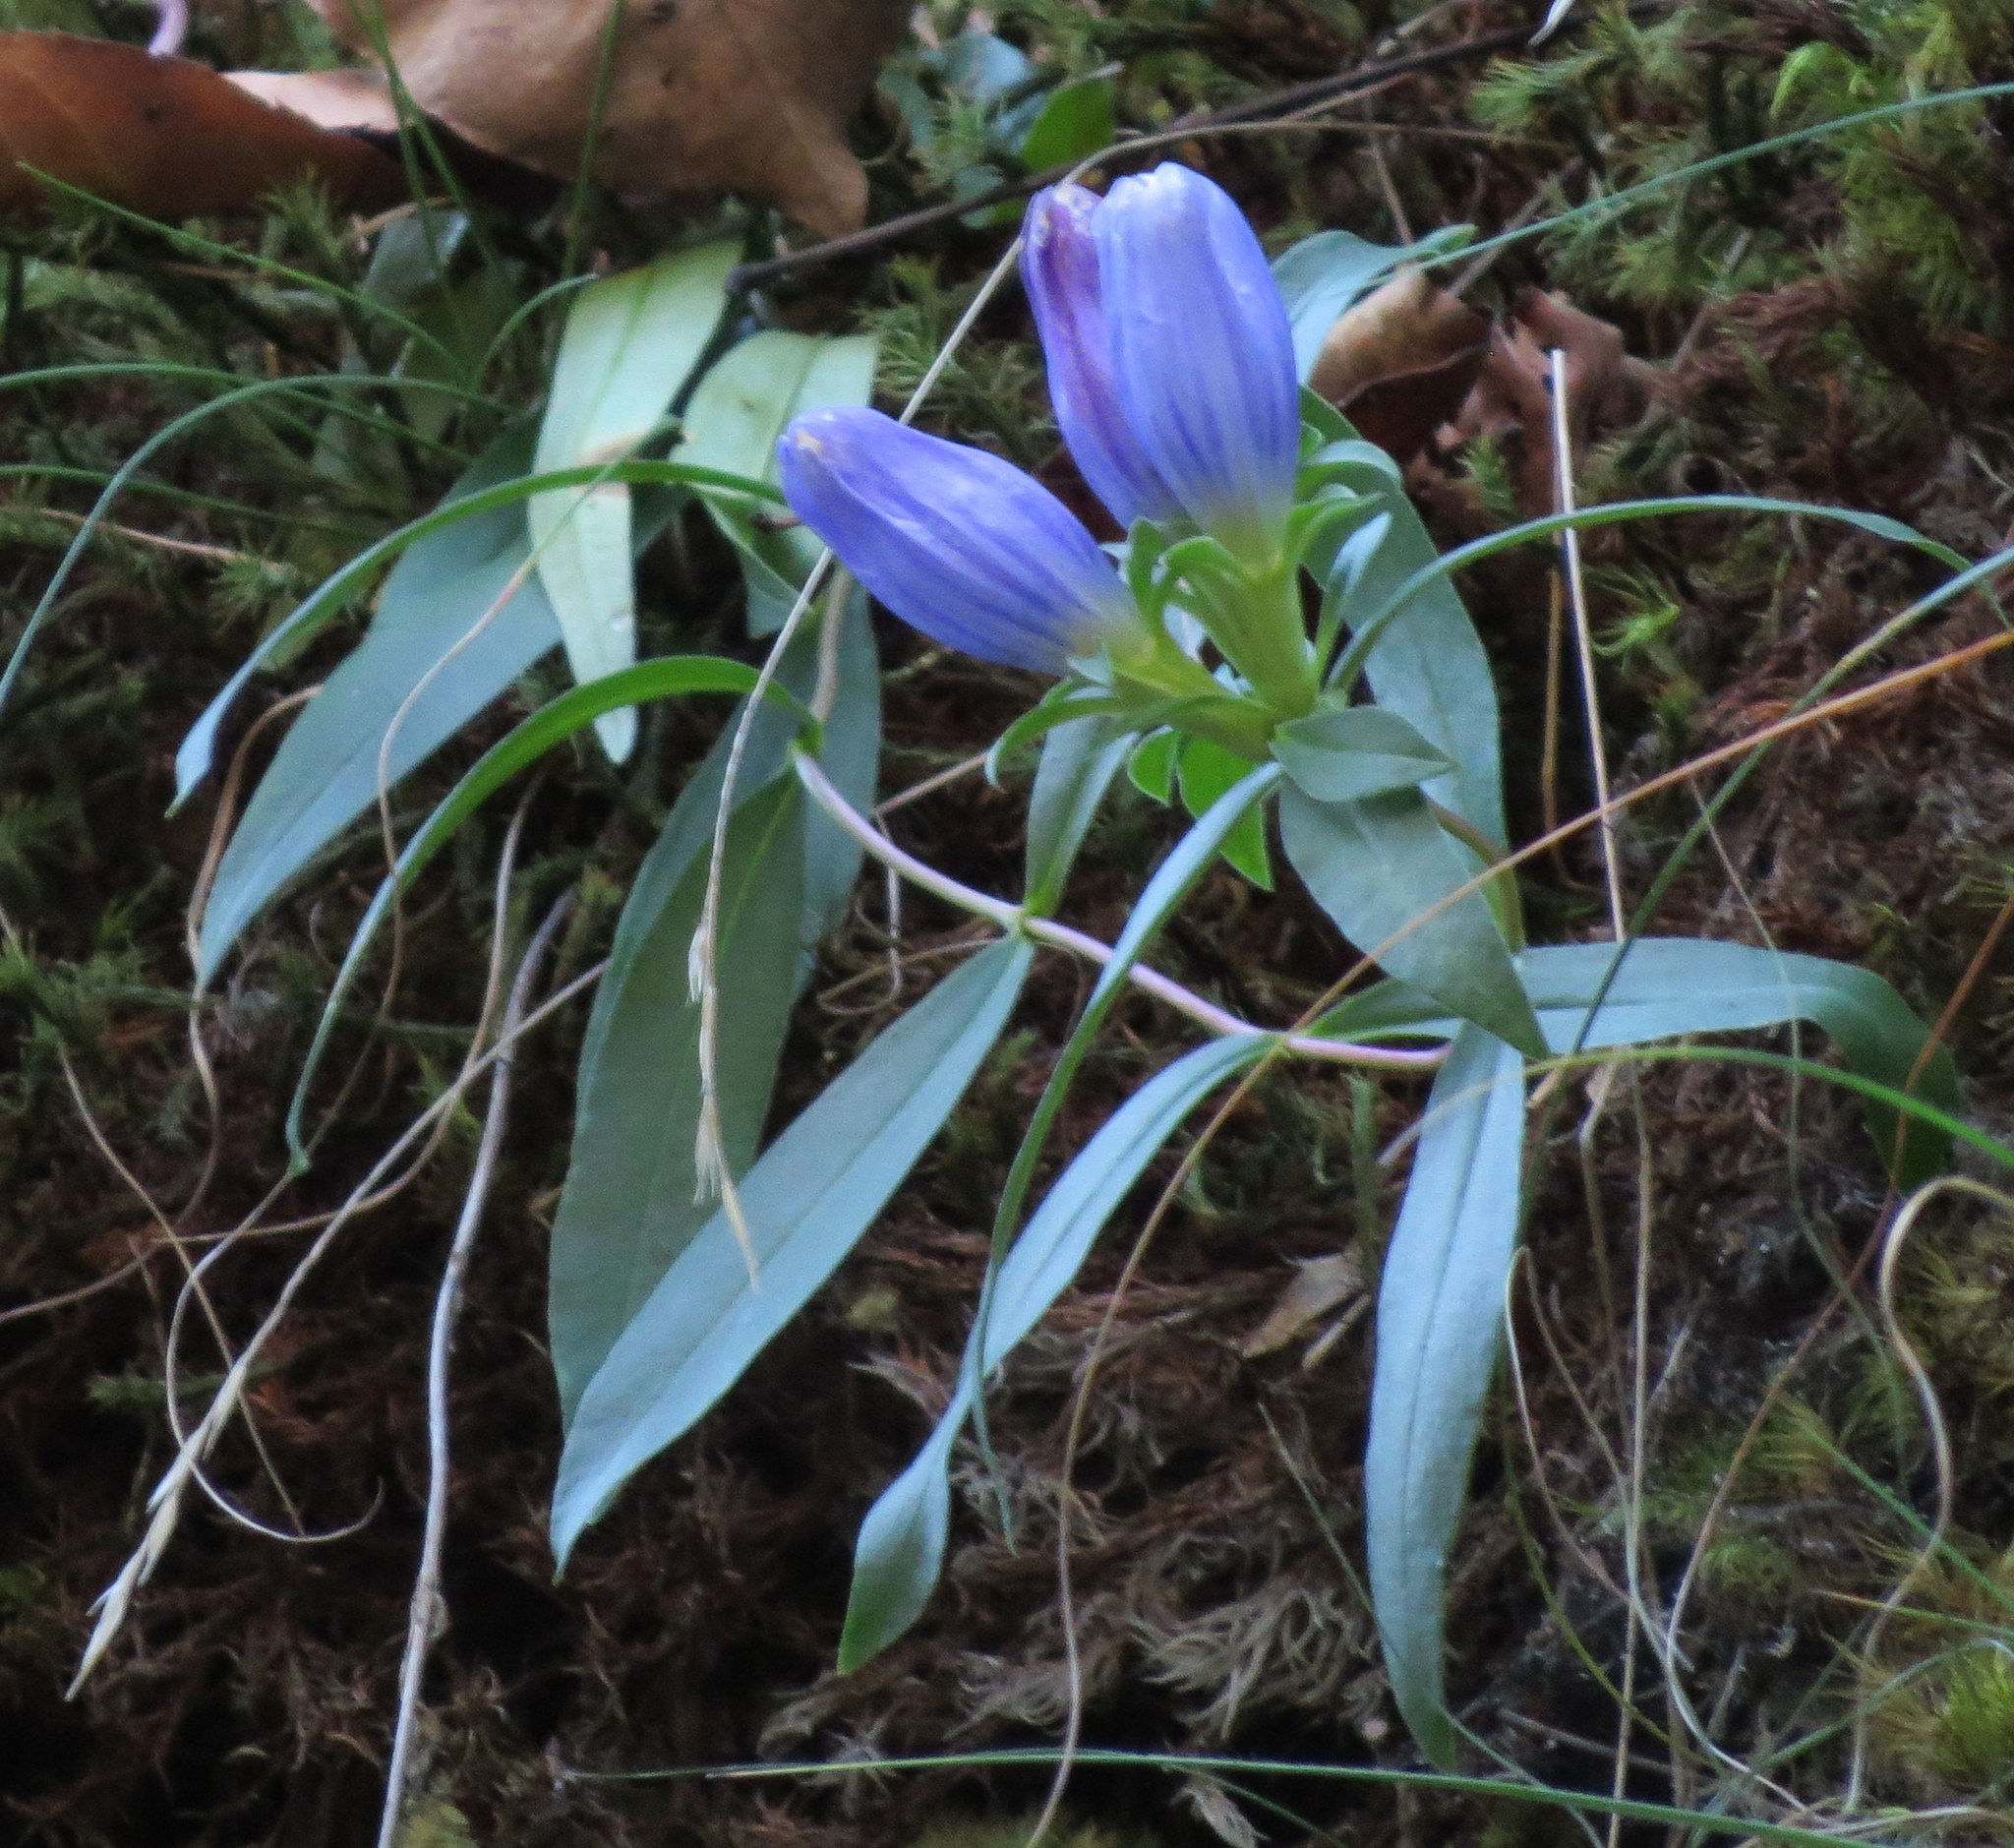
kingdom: Plantae
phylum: Tracheophyta
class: Magnoliopsida
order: Gentianales
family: Gentianaceae
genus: Gentiana
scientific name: Gentiana saponaria
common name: Soapwort gentian
